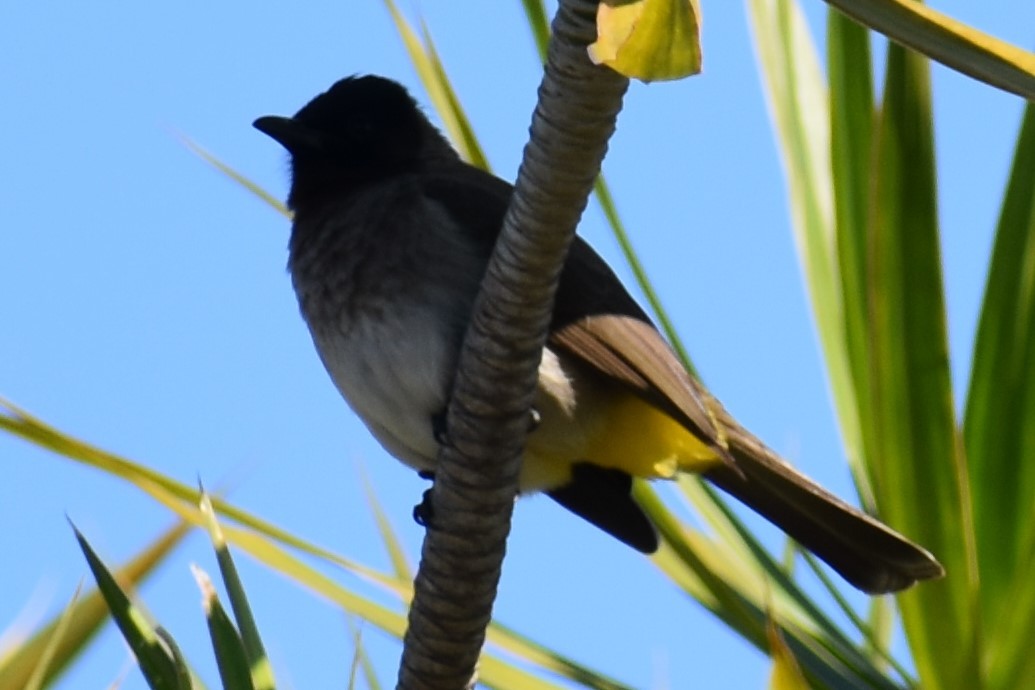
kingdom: Animalia
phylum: Chordata
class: Aves
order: Passeriformes
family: Pycnonotidae
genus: Pycnonotus
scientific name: Pycnonotus barbatus
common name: Common bulbul
